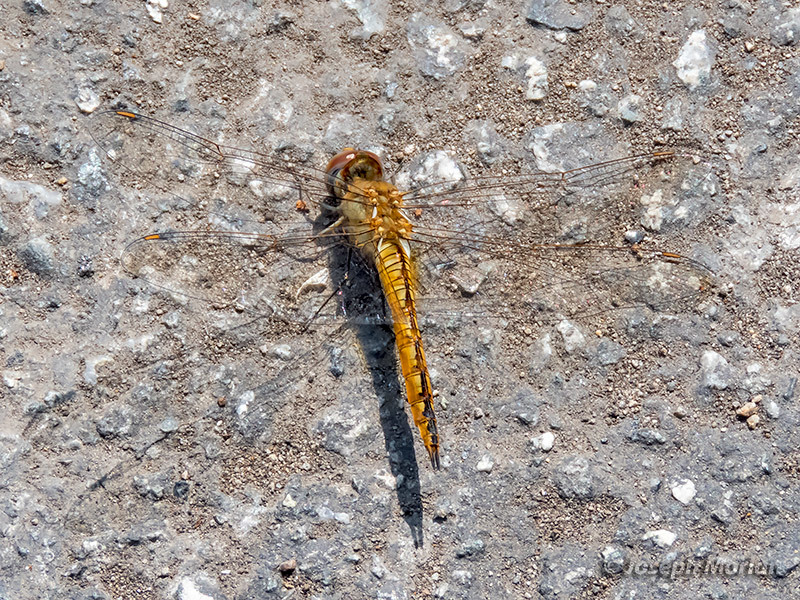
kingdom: Animalia
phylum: Arthropoda
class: Insecta
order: Odonata
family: Libellulidae
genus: Pantala
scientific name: Pantala flavescens
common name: Wandering glider
